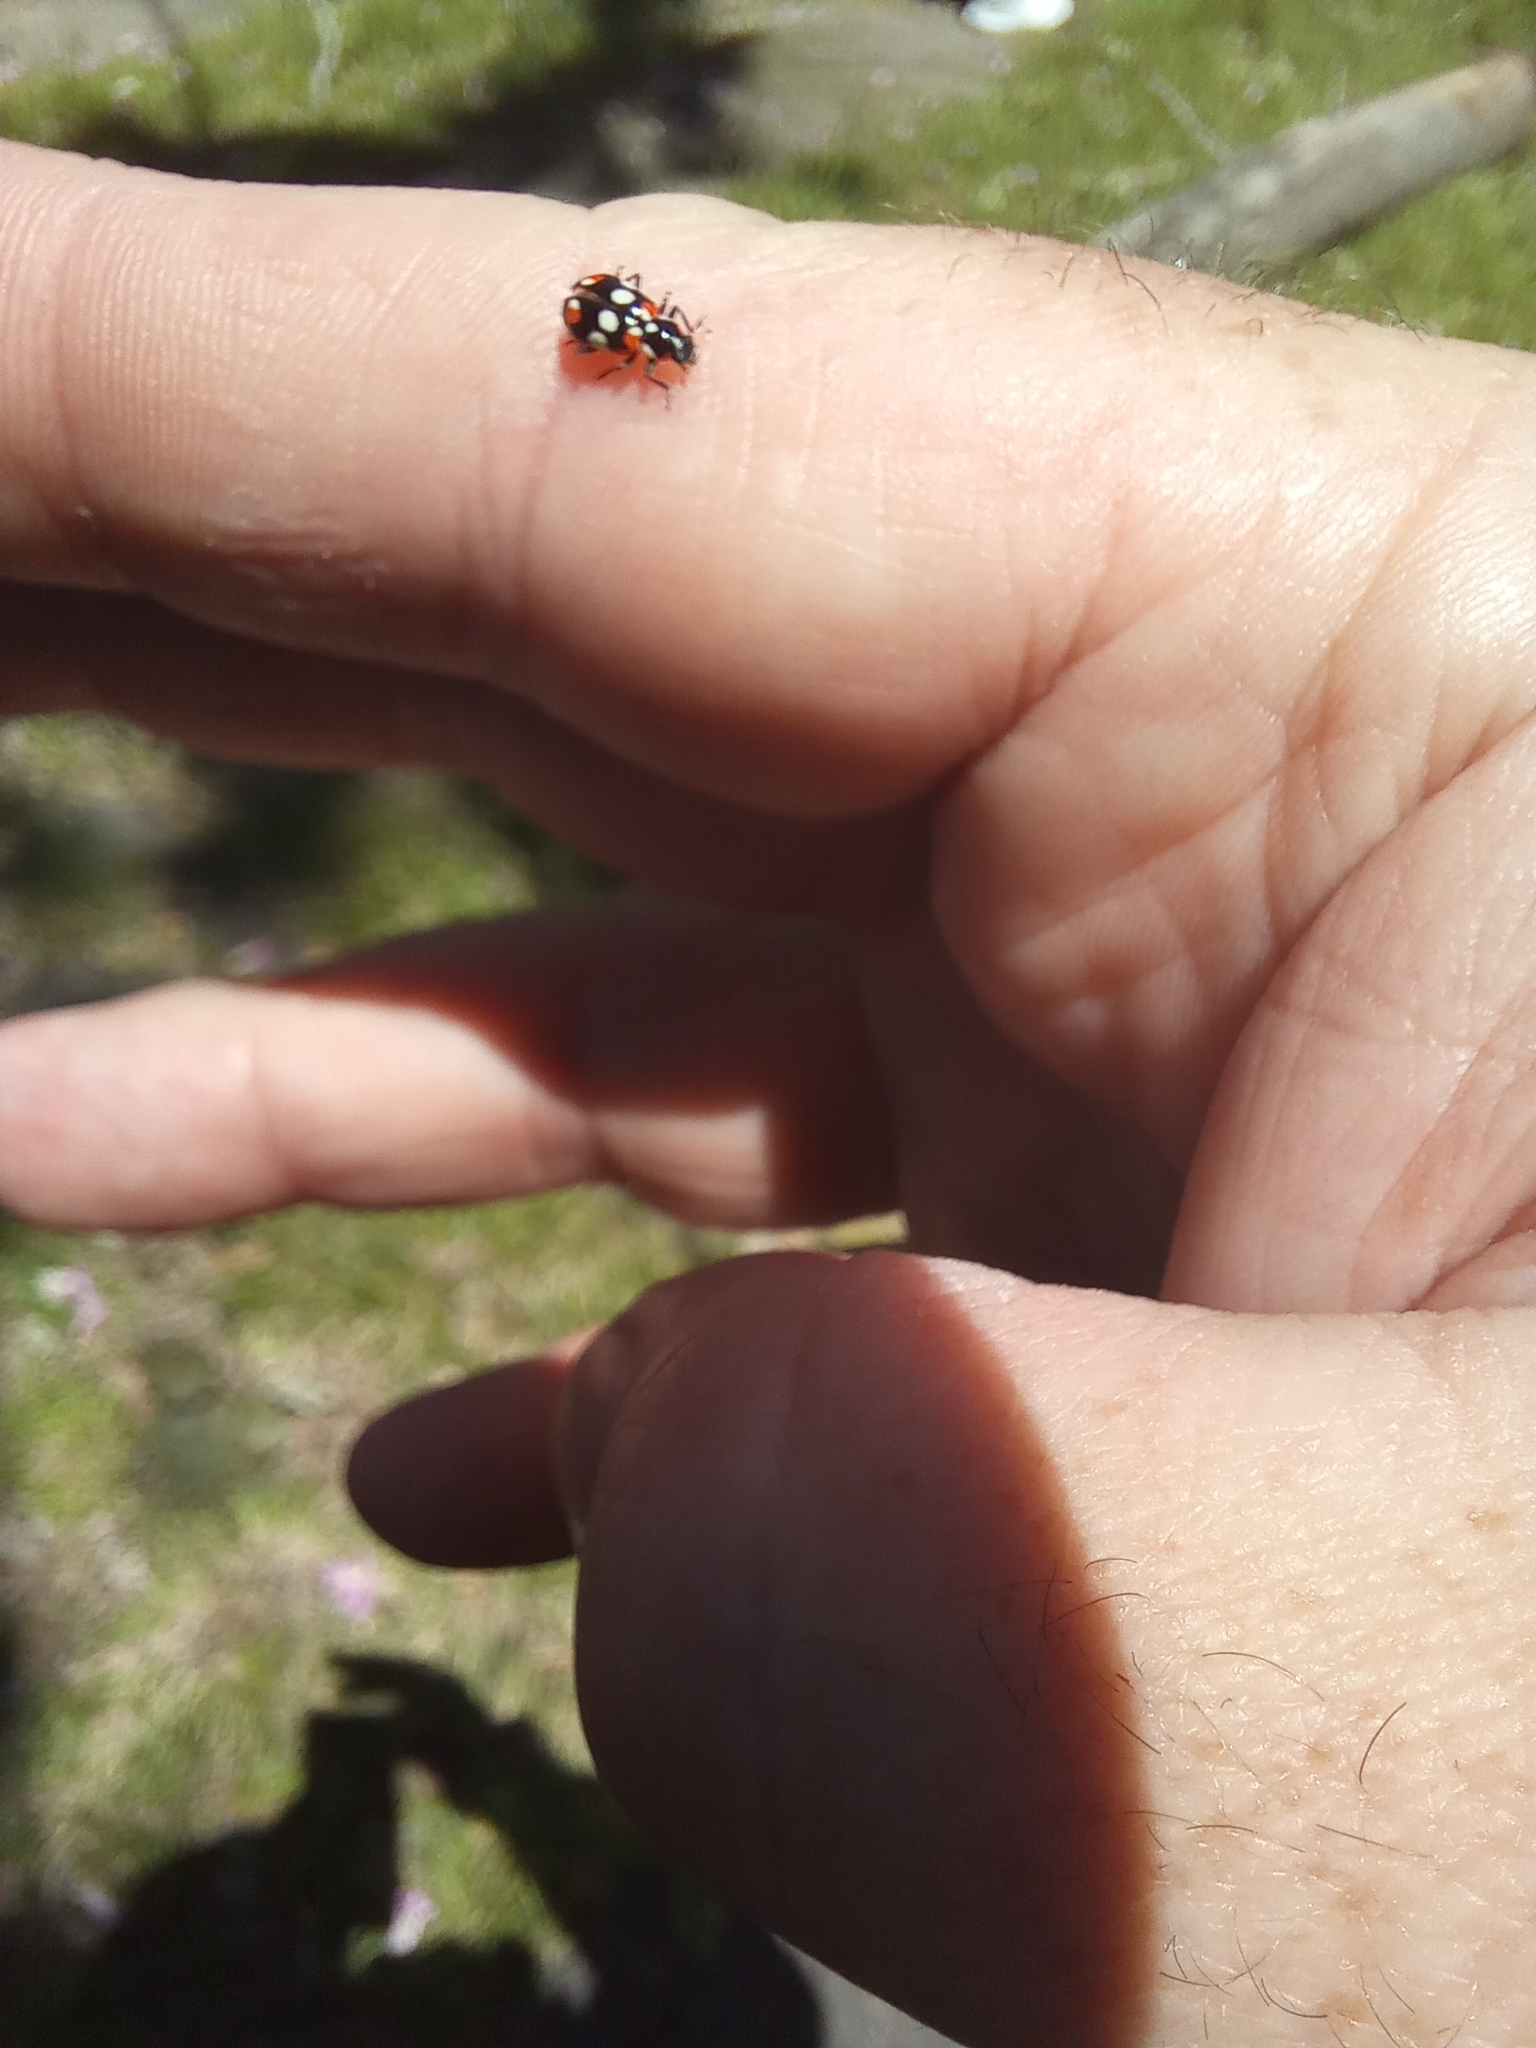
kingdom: Animalia
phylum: Arthropoda
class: Insecta
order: Coleoptera
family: Coccinellidae
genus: Eriopis
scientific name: Eriopis connexa
